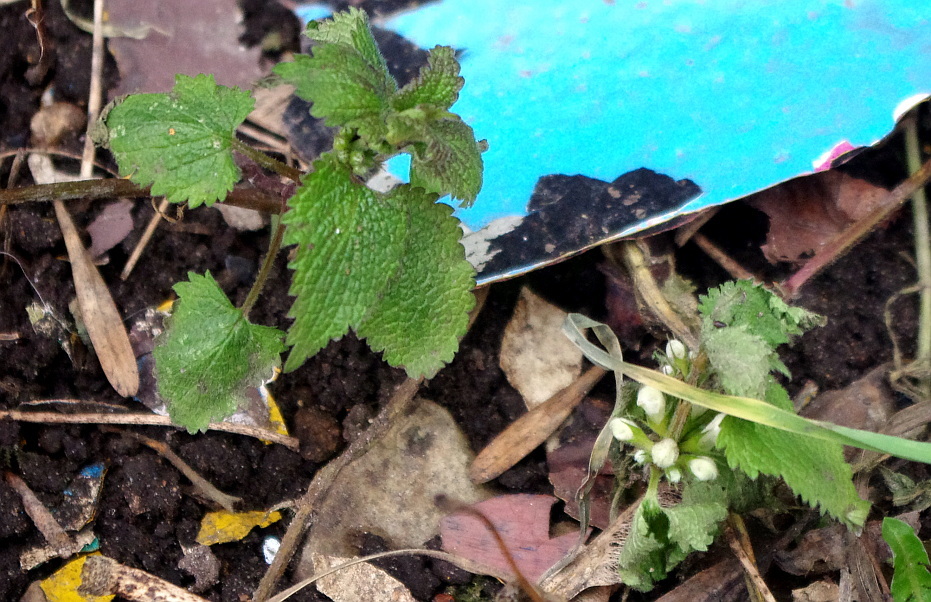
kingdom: Plantae
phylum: Tracheophyta
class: Magnoliopsida
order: Lamiales
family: Lamiaceae
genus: Lamium
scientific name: Lamium album
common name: White dead-nettle
